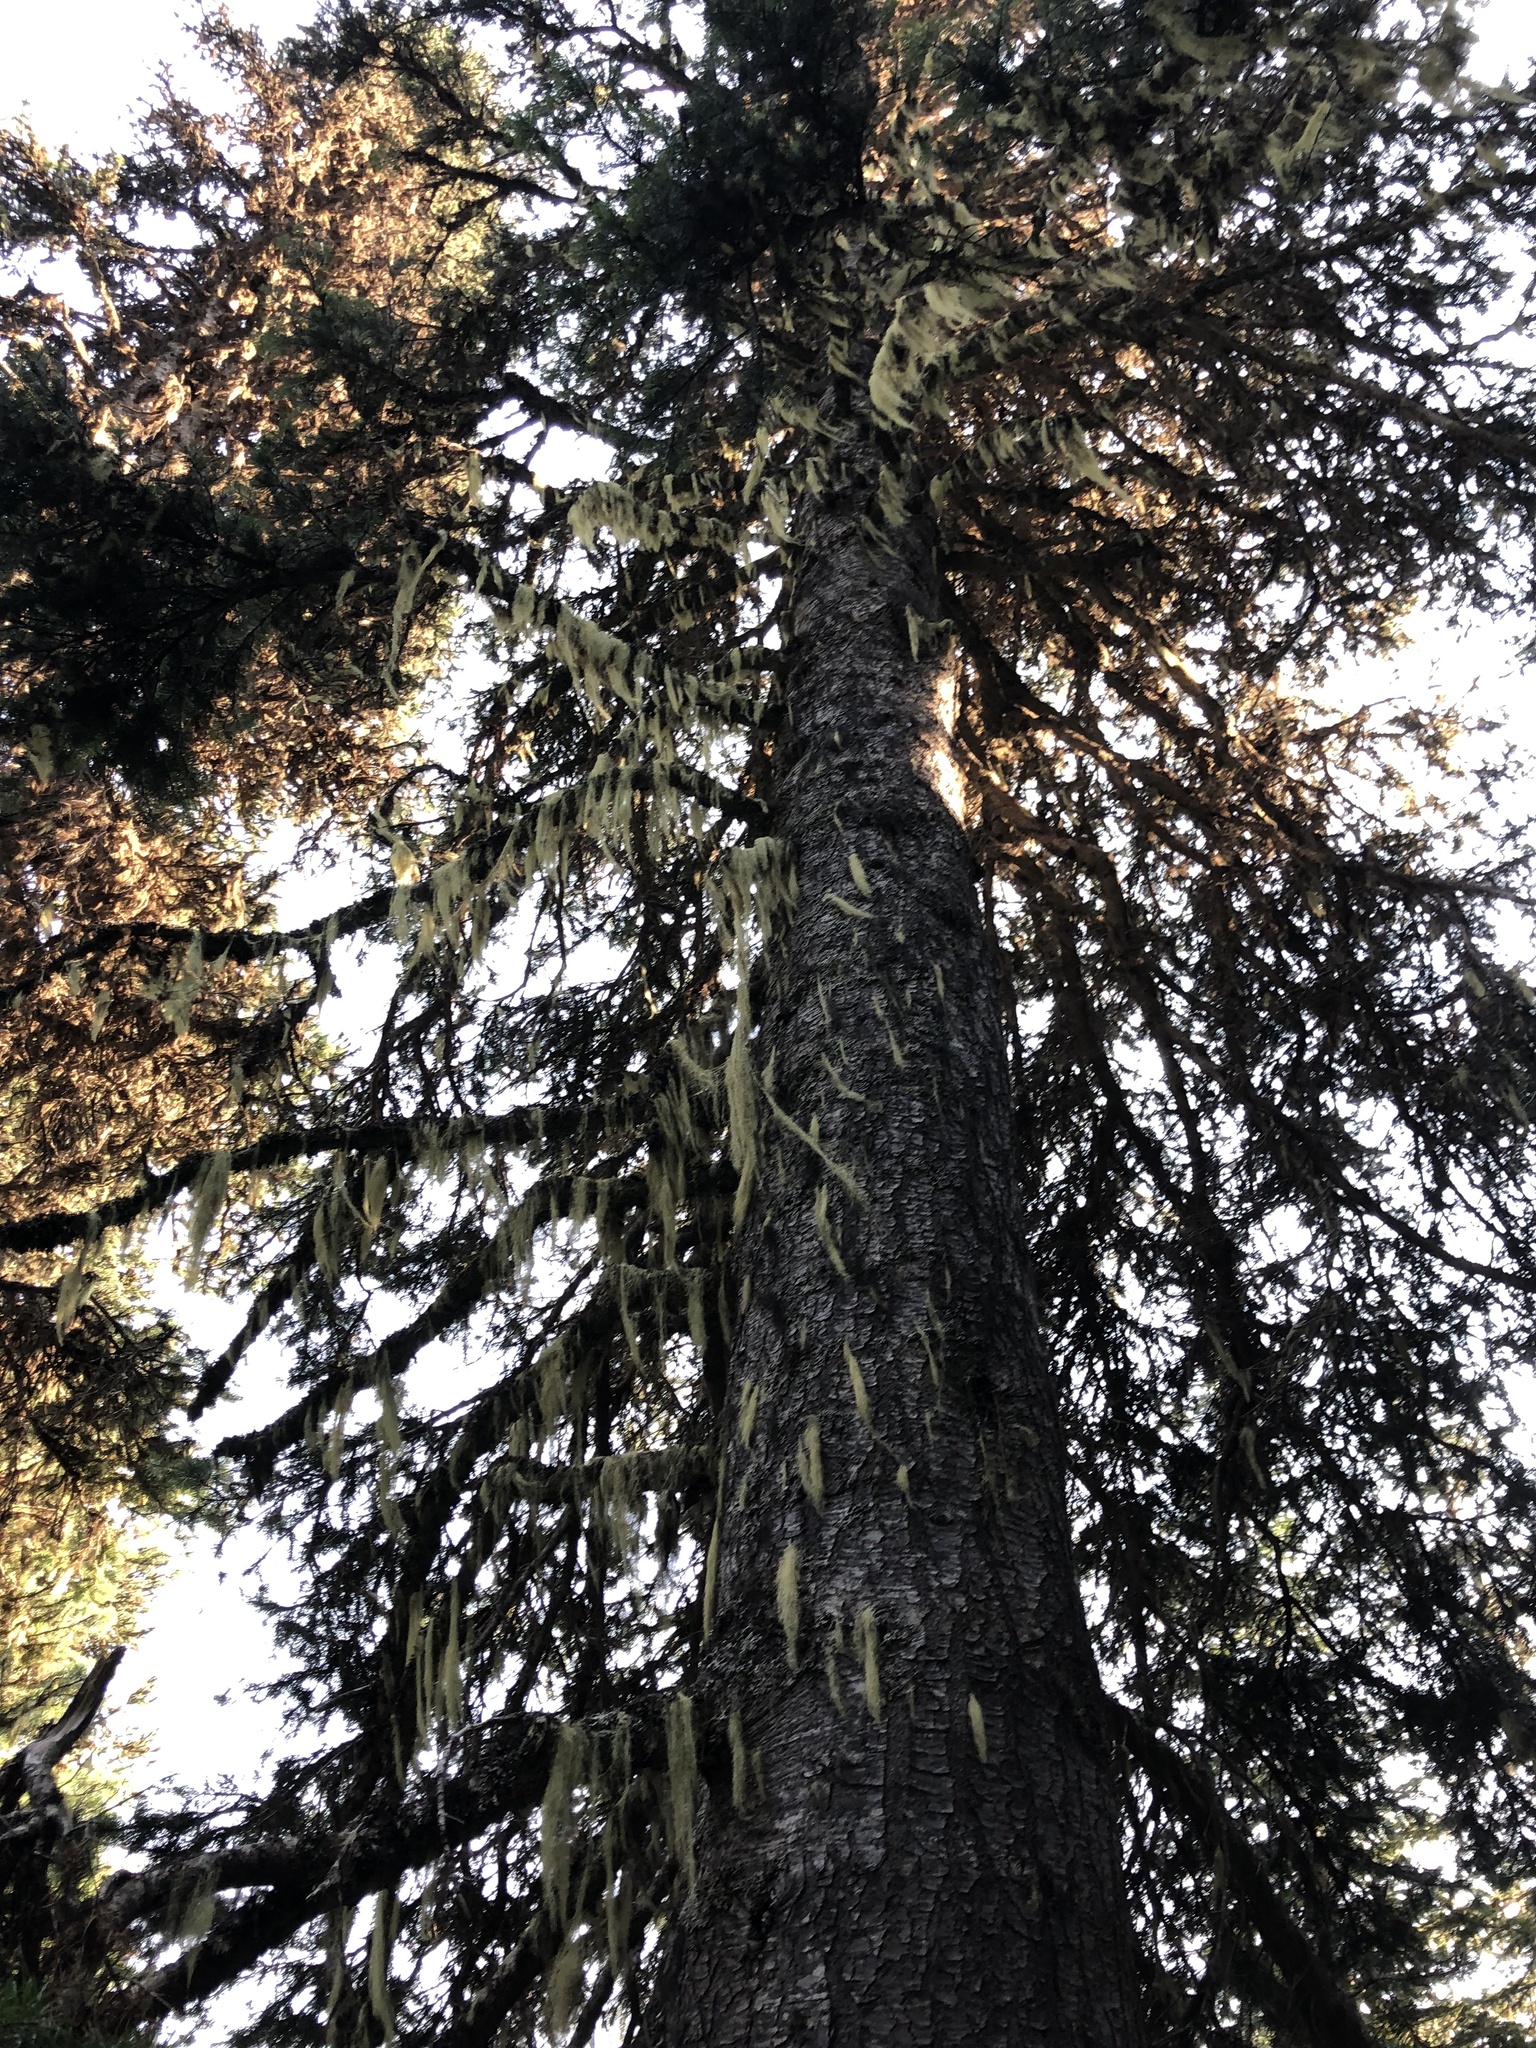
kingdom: Plantae
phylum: Tracheophyta
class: Pinopsida
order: Pinales
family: Pinaceae
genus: Abies
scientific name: Abies lasiocarpa
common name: Subalpine fir
